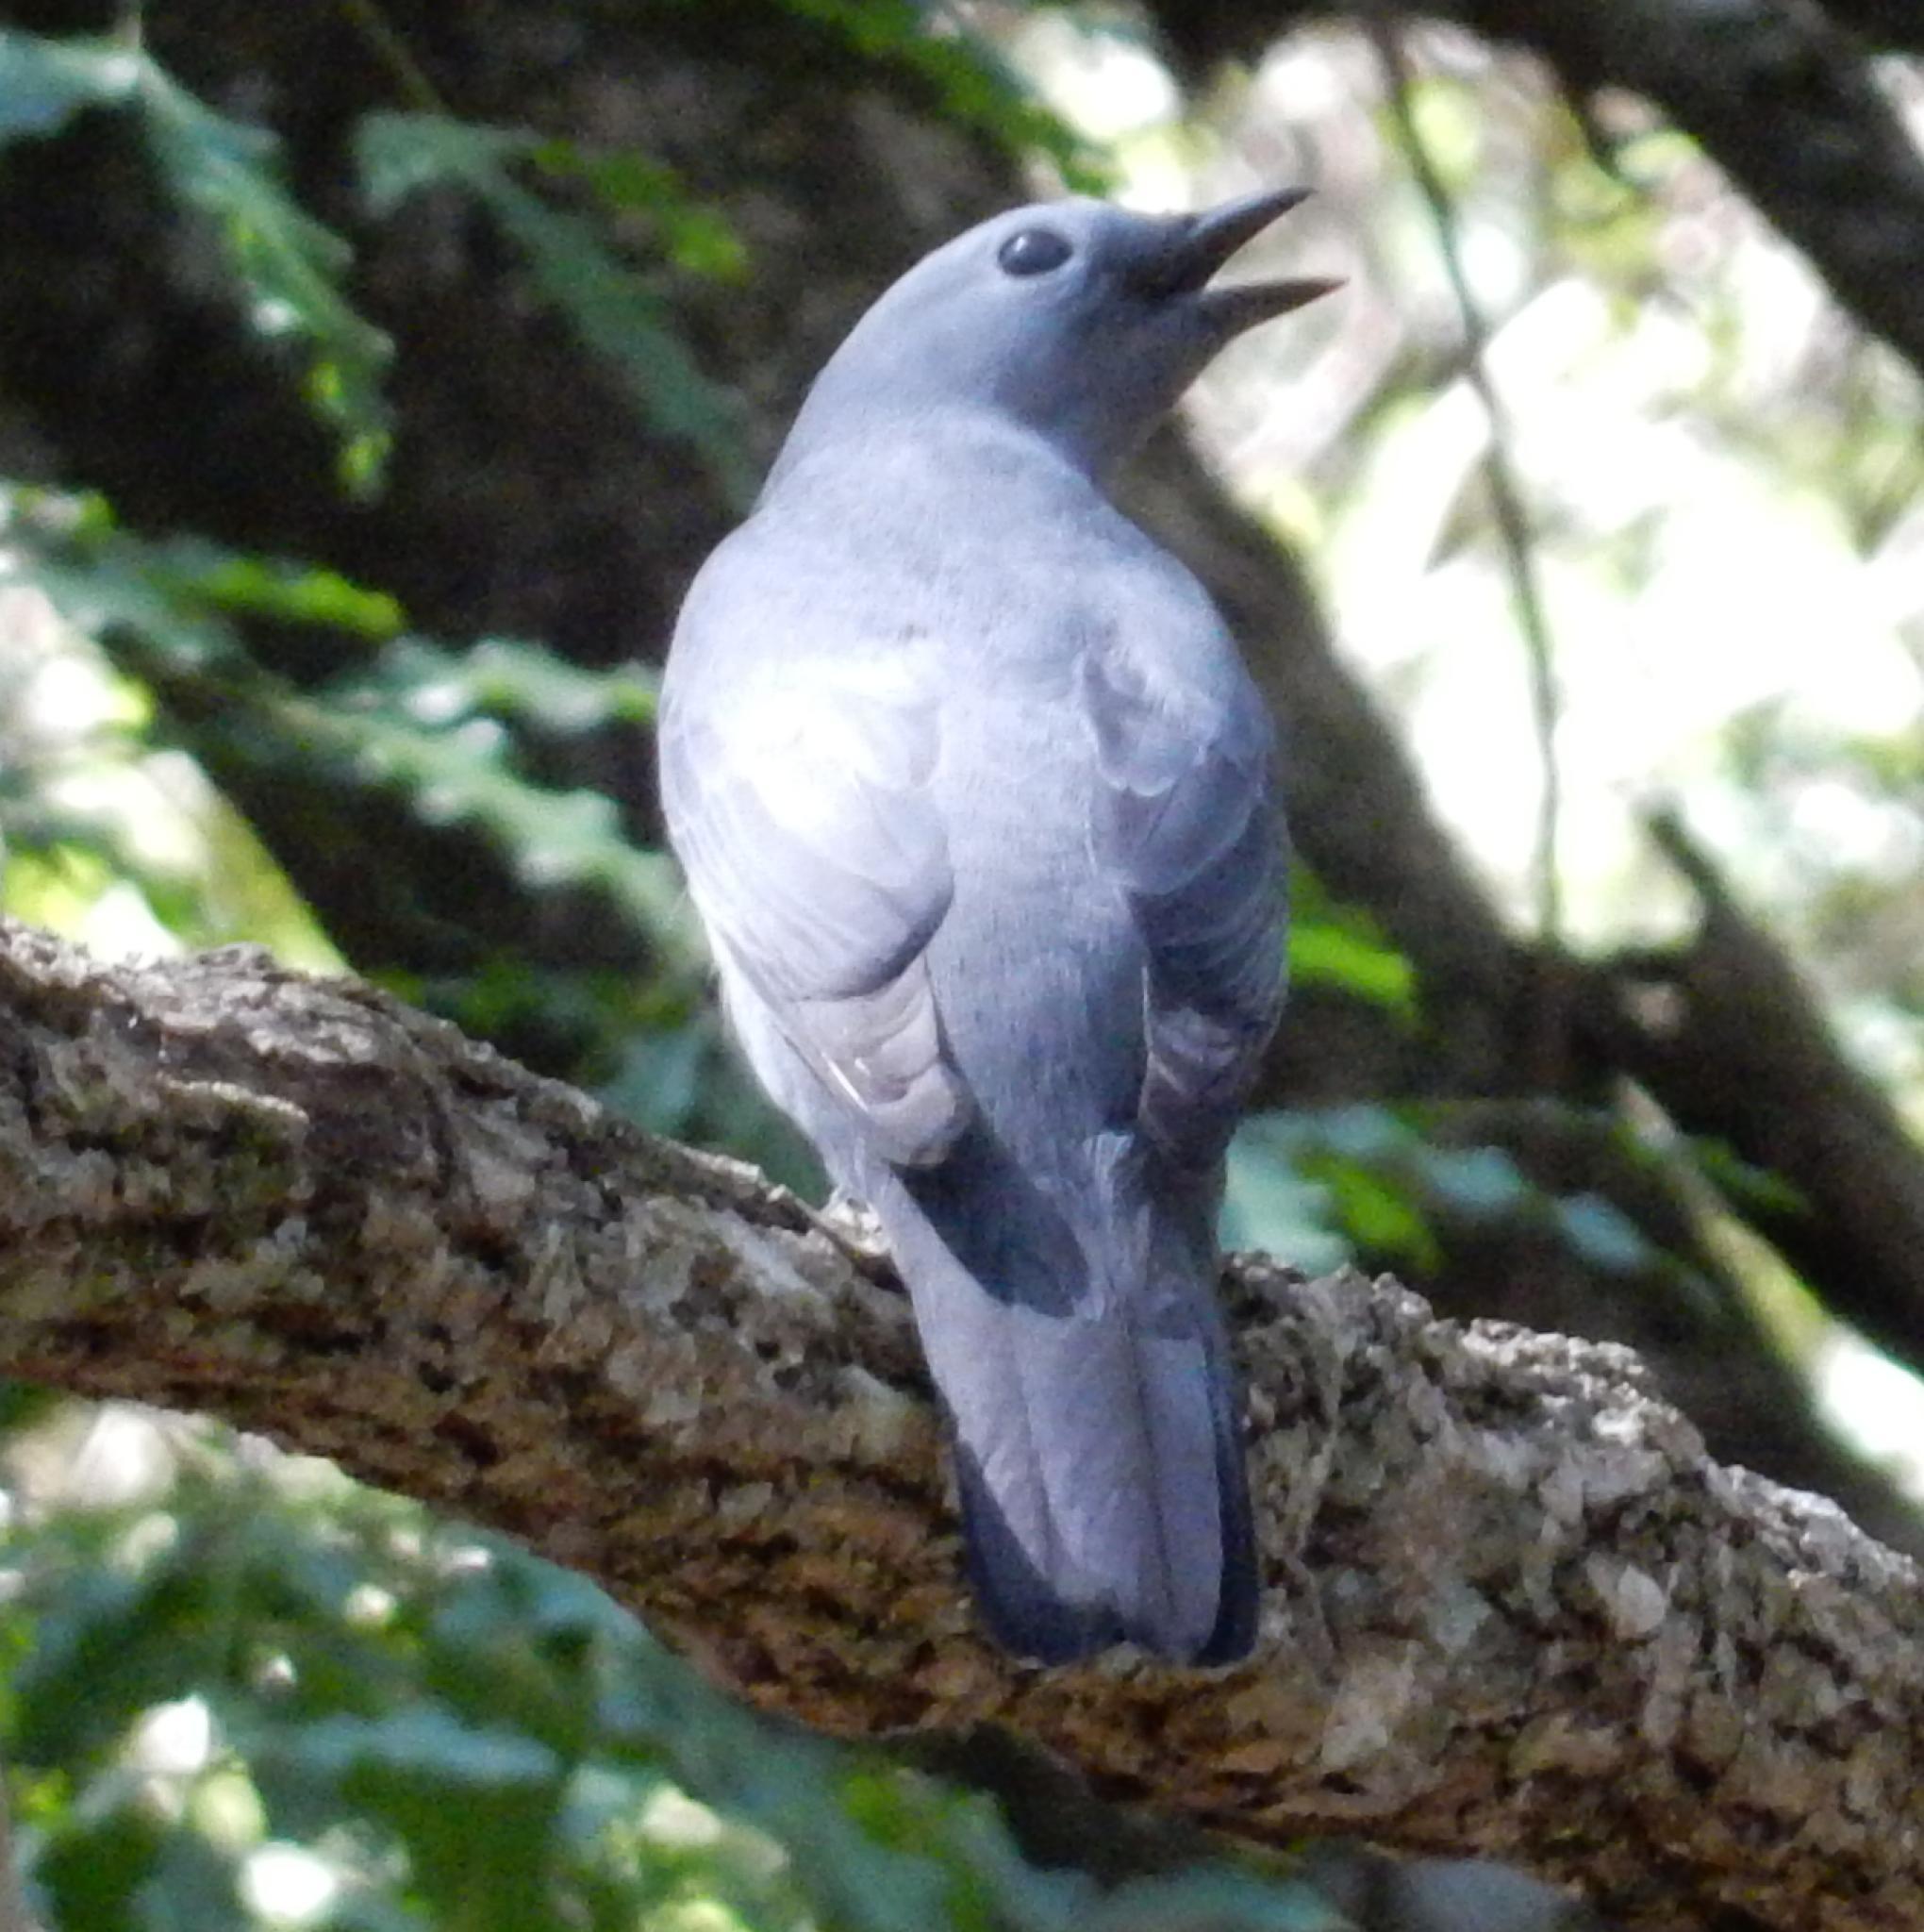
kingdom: Animalia
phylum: Chordata
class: Aves
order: Passeriformes
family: Campephagidae
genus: Coracina
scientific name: Coracina caesia
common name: Grey cuckooshrike
